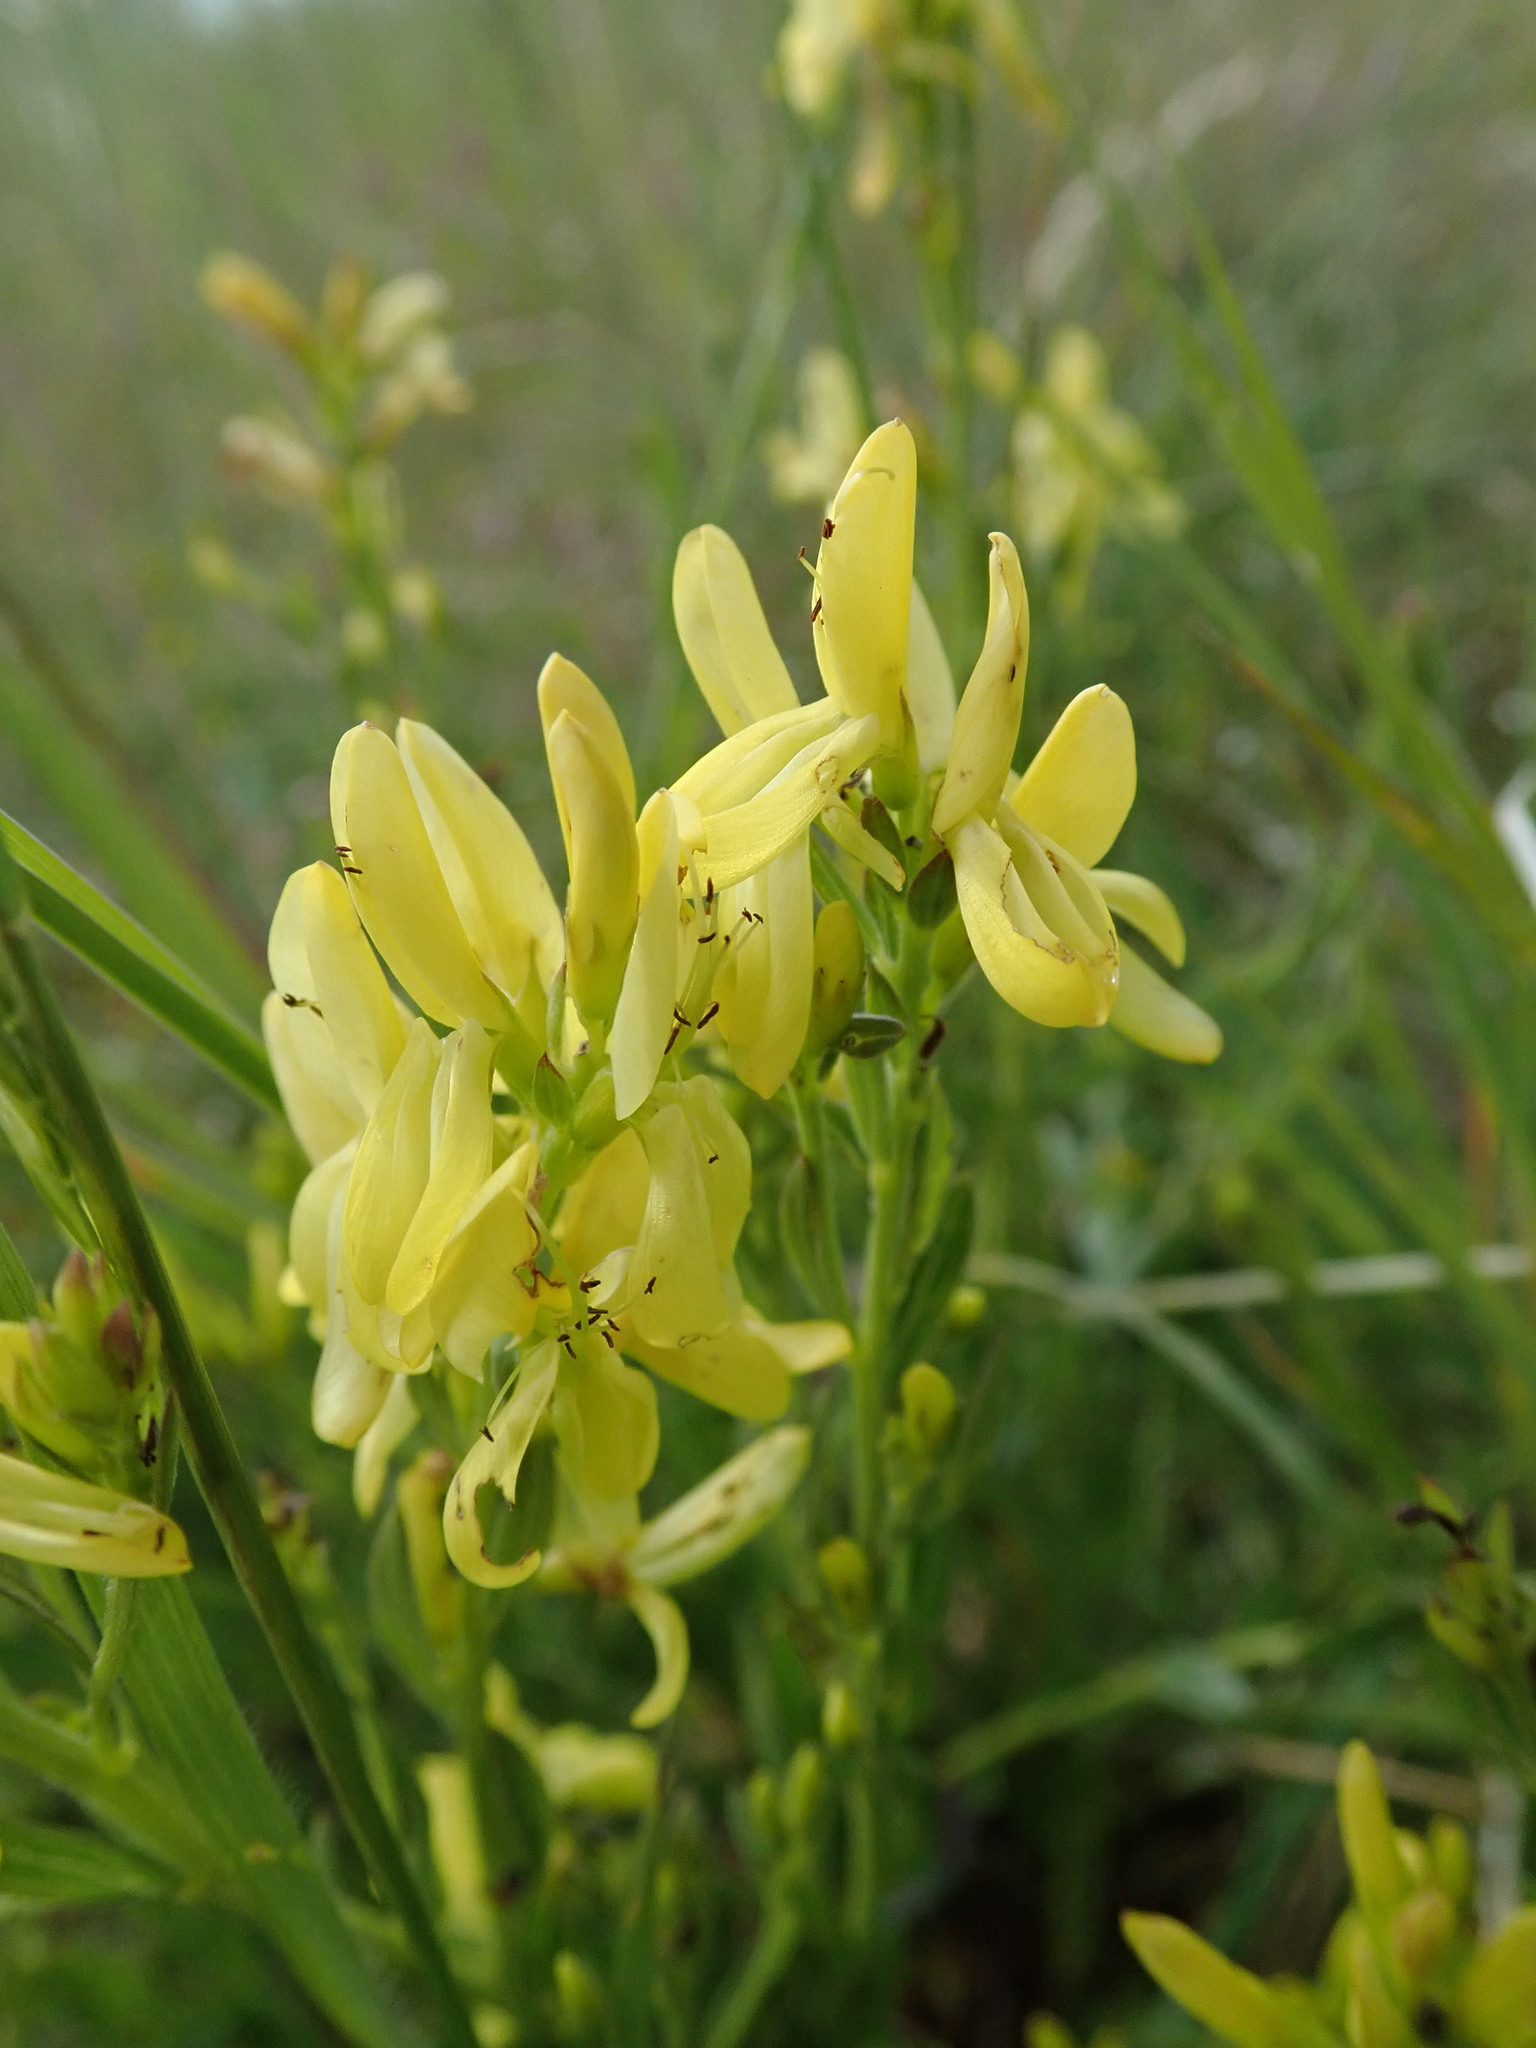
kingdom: Plantae
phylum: Tracheophyta
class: Magnoliopsida
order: Fabales
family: Fabaceae
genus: Genista
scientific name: Genista tinctoria
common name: Dyer's greenweed
